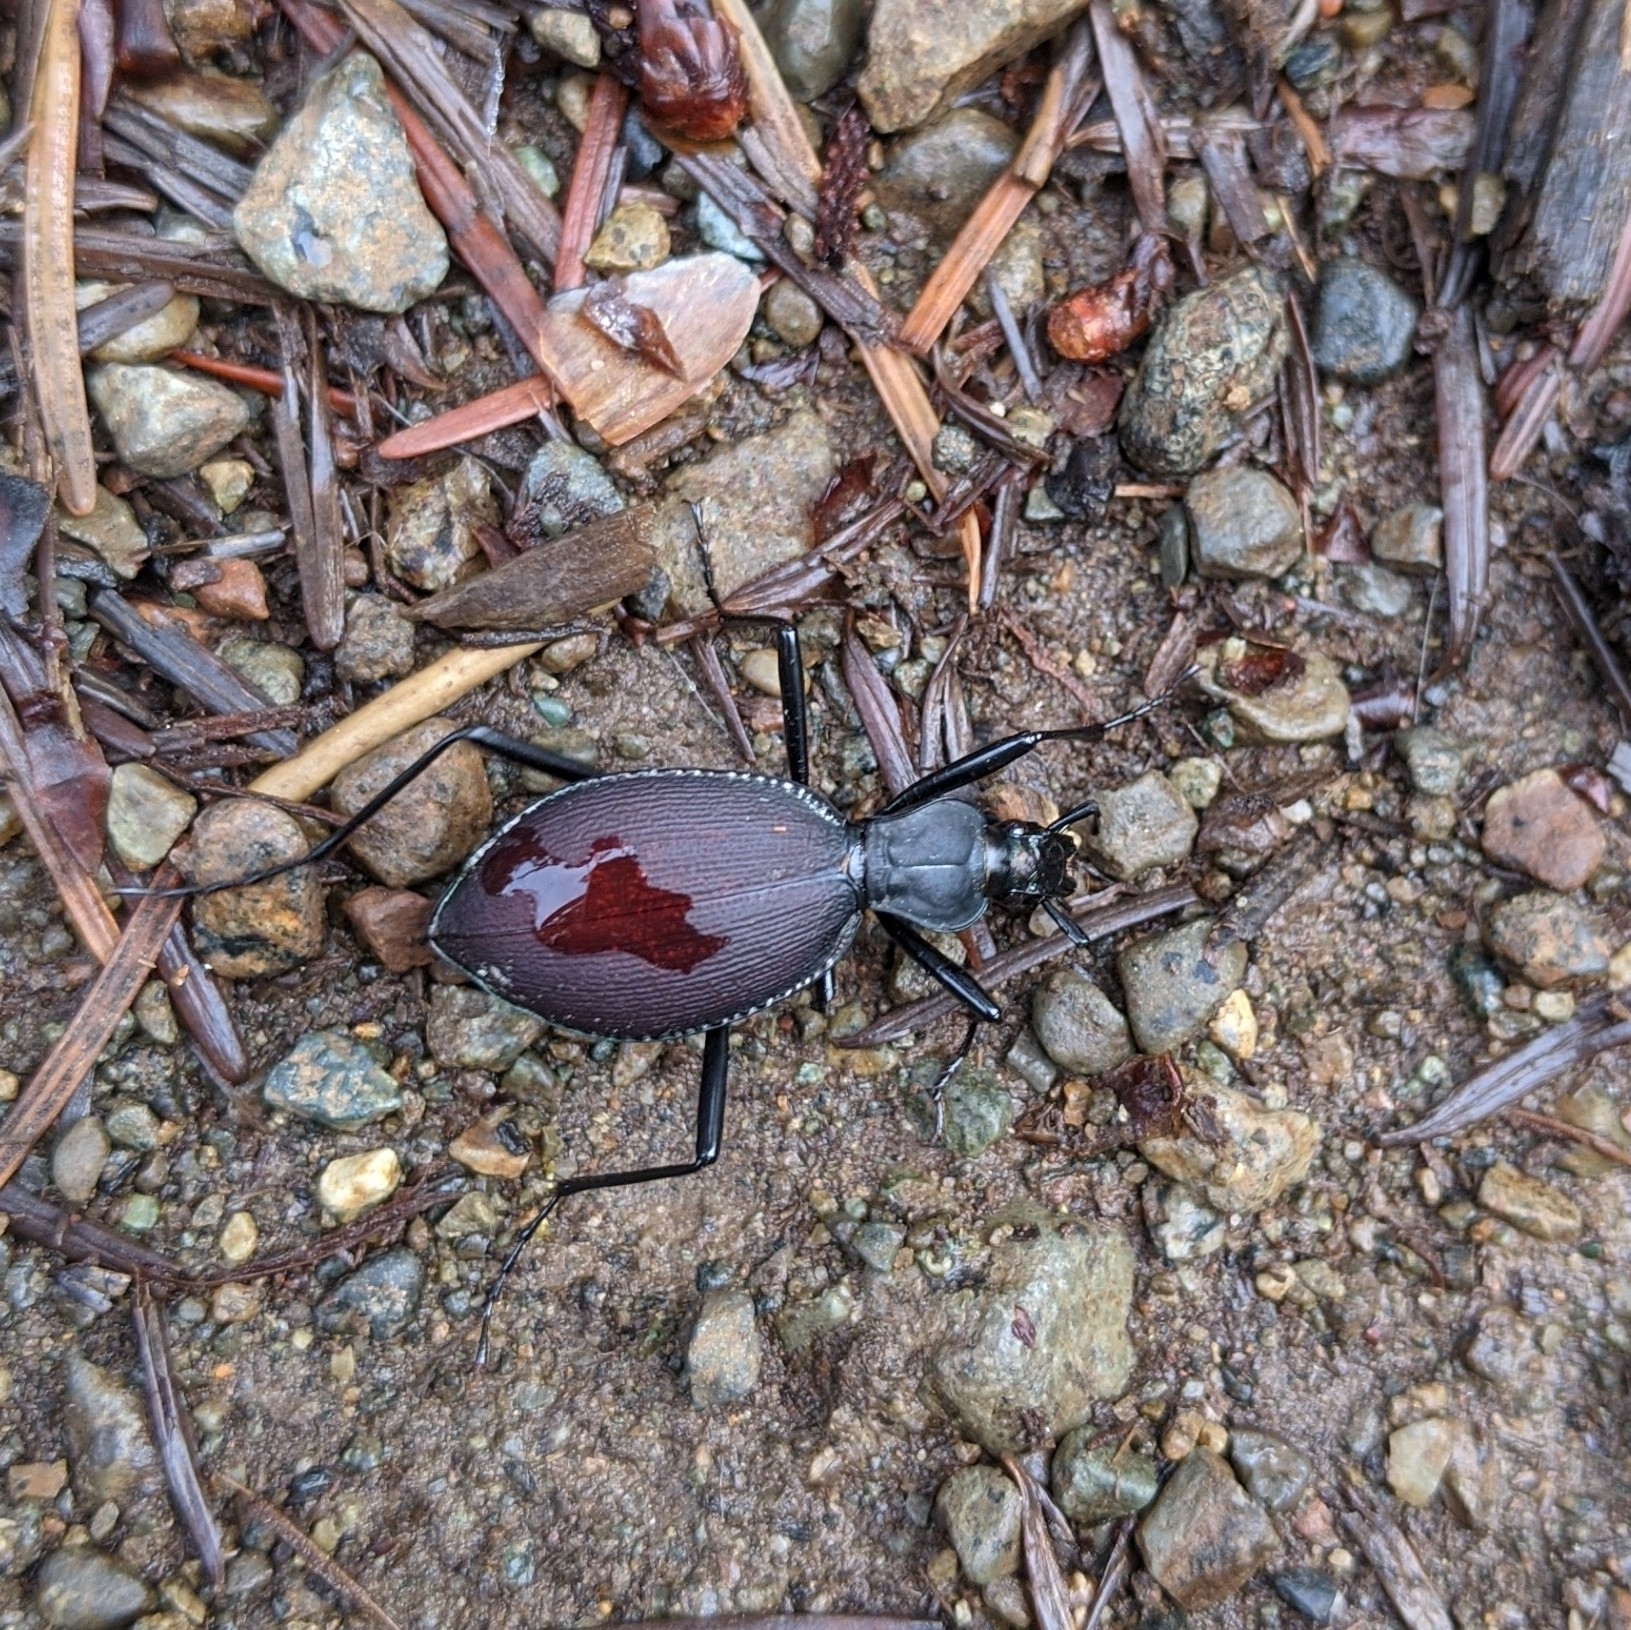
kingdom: Animalia
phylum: Arthropoda
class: Insecta
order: Coleoptera
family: Carabidae
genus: Scaphinotus
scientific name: Scaphinotus angusticollis
